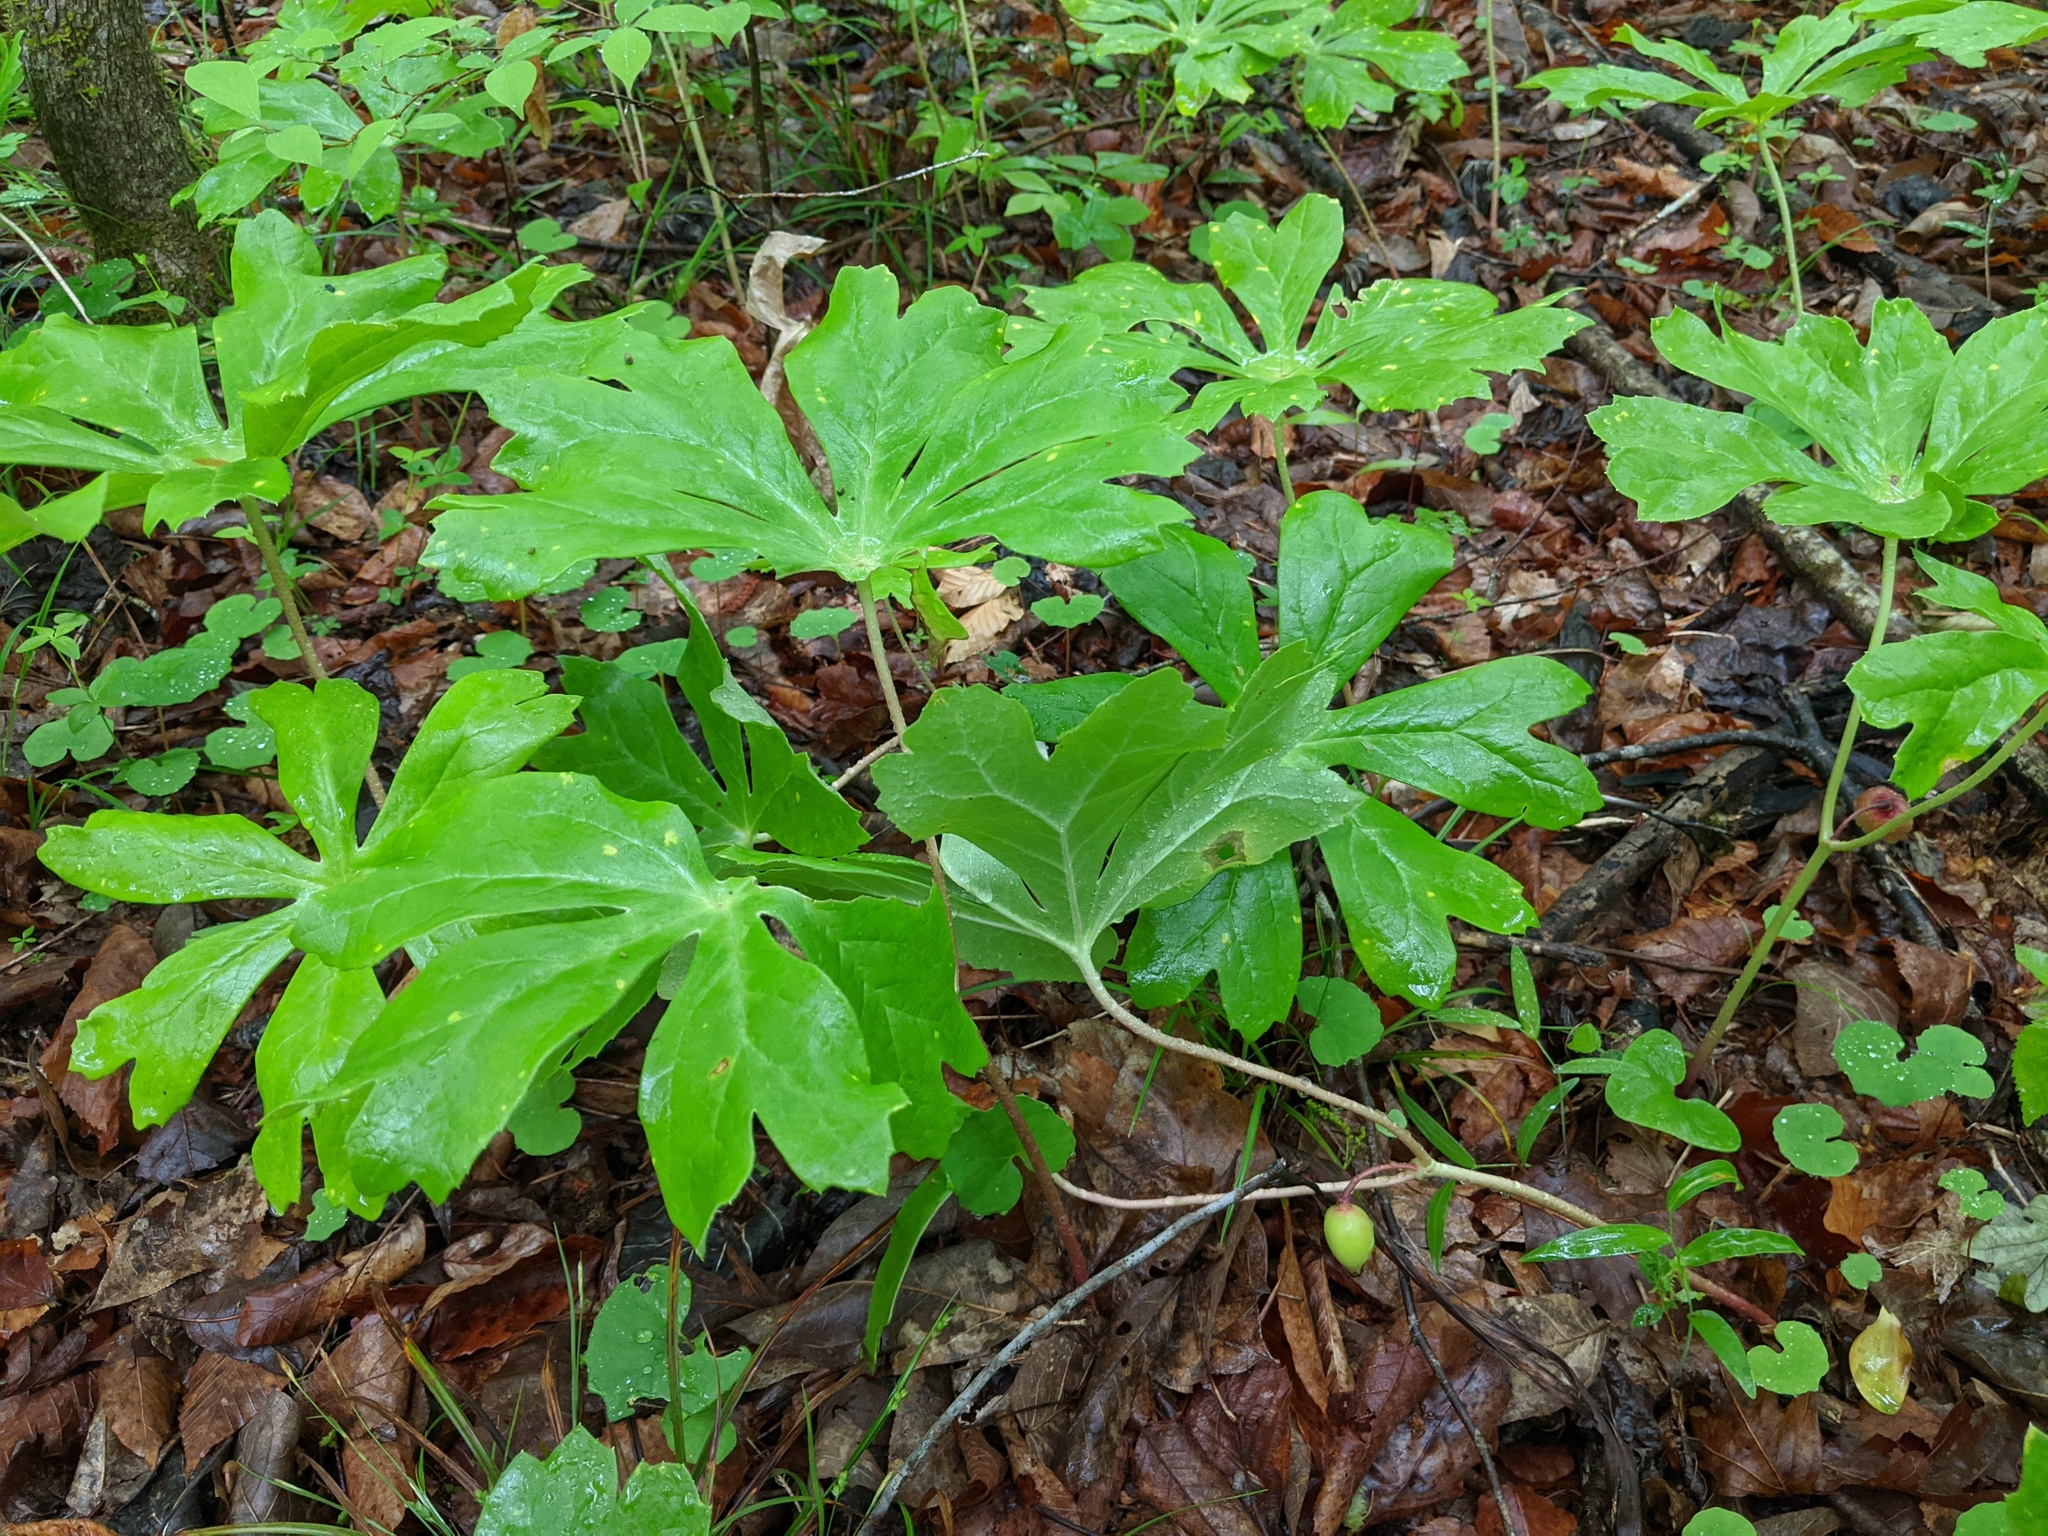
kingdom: Plantae
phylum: Tracheophyta
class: Magnoliopsida
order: Ranunculales
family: Berberidaceae
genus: Podophyllum
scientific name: Podophyllum peltatum
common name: Wild mandrake
